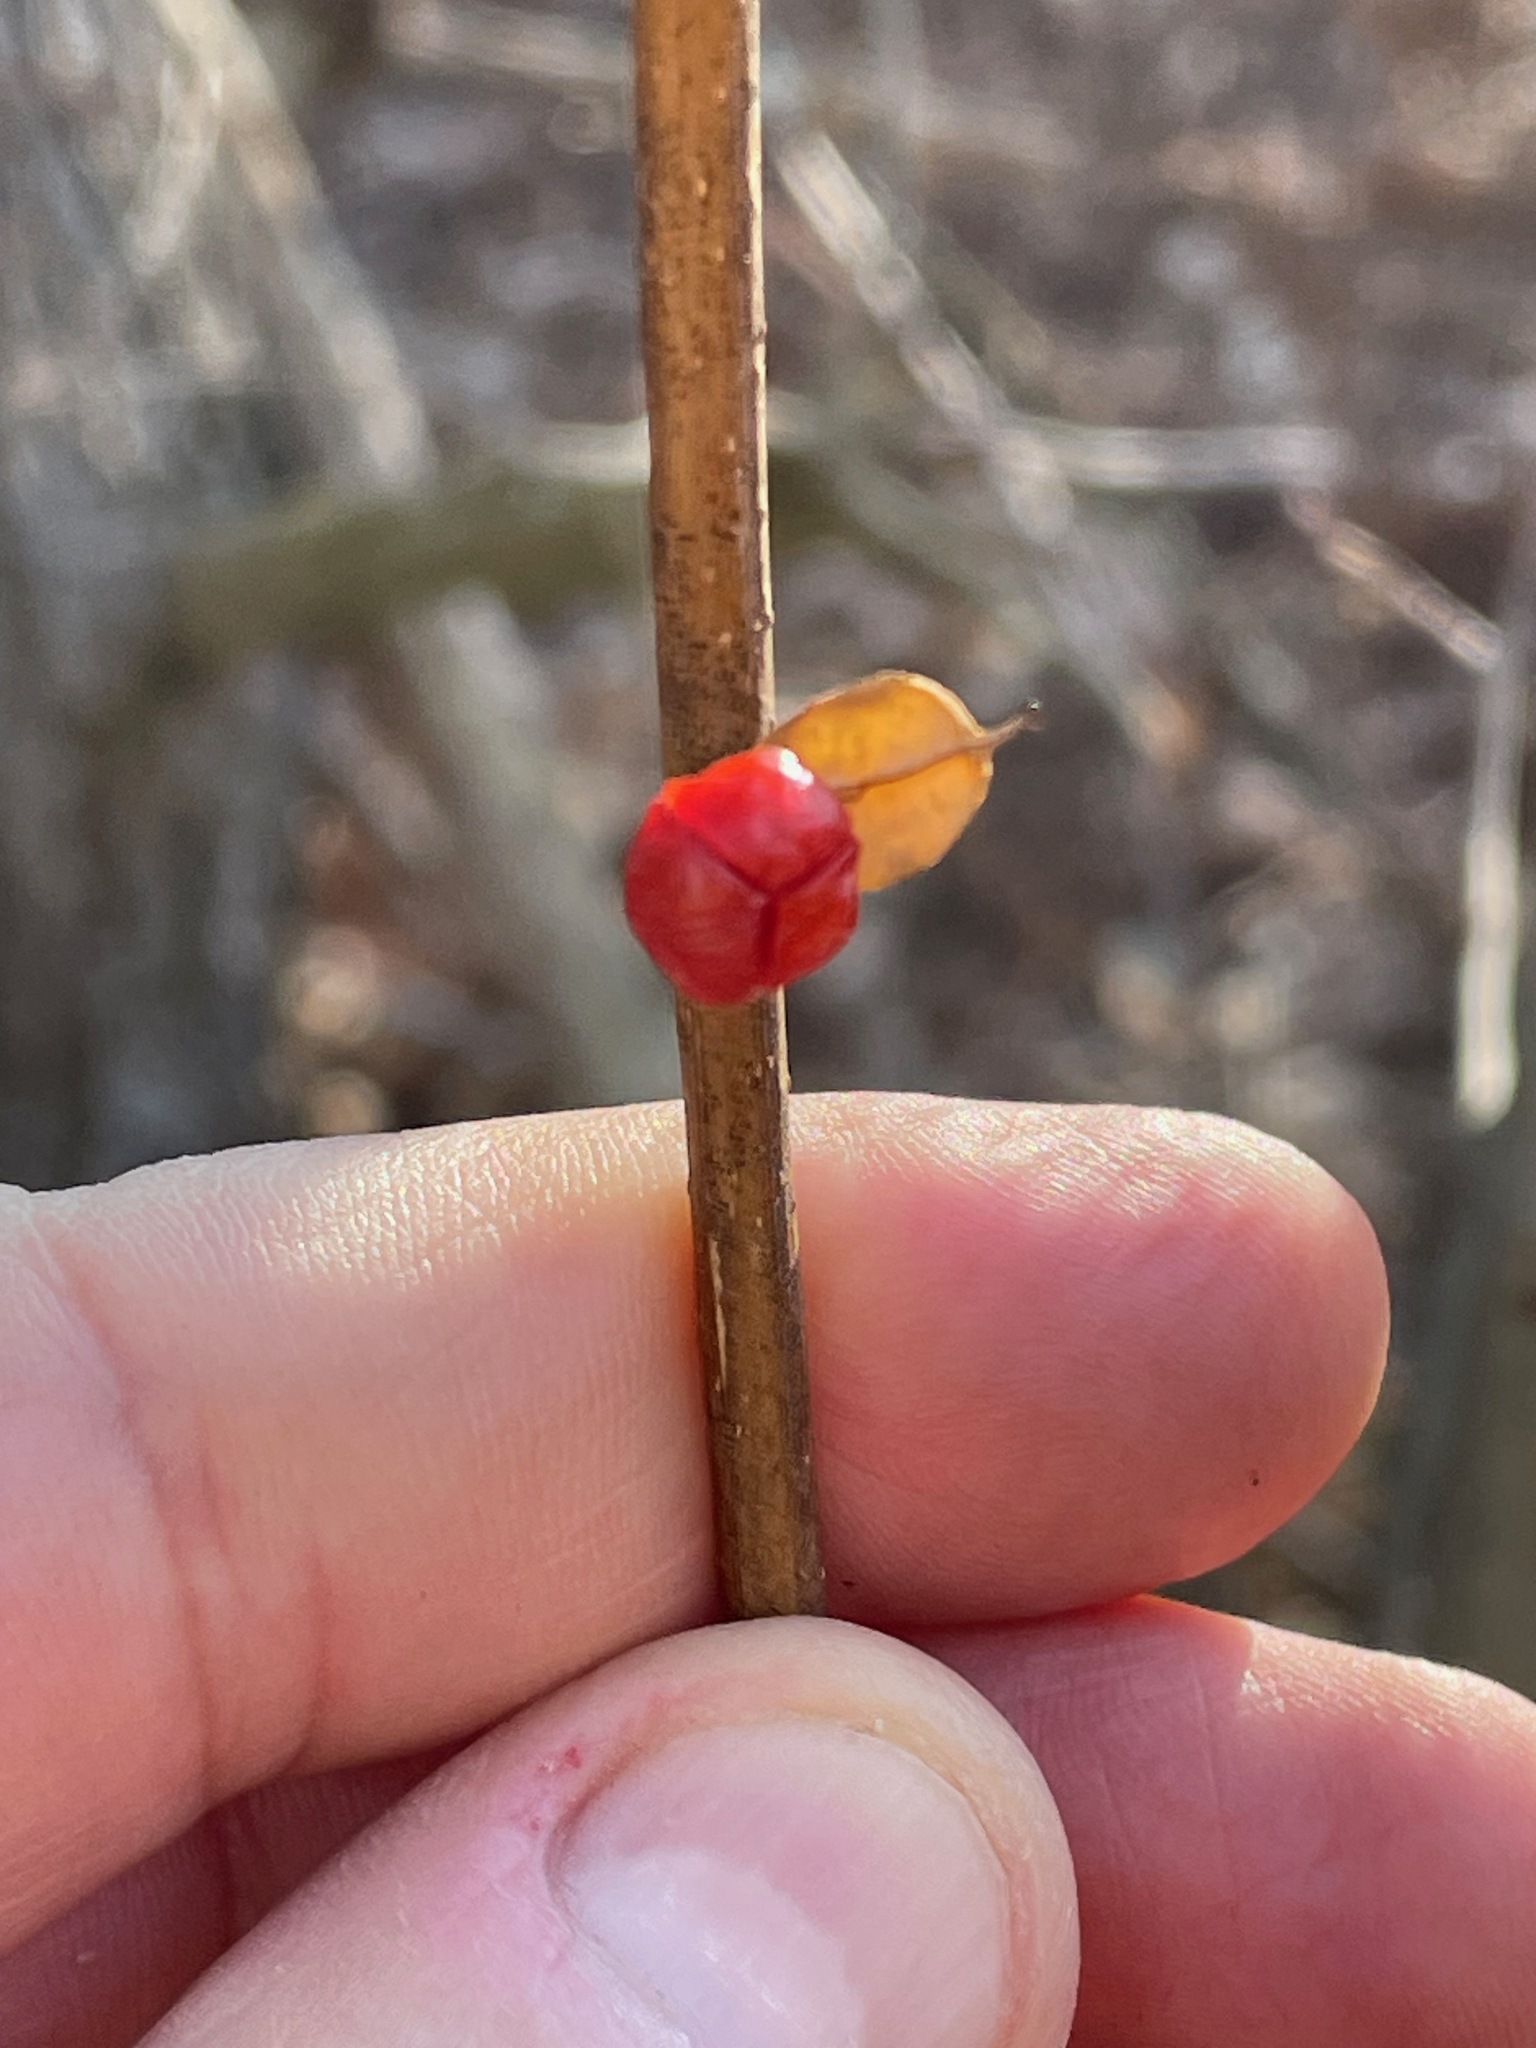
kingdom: Plantae
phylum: Tracheophyta
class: Magnoliopsida
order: Celastrales
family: Celastraceae
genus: Celastrus
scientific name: Celastrus orbiculatus
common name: Oriental bittersweet
